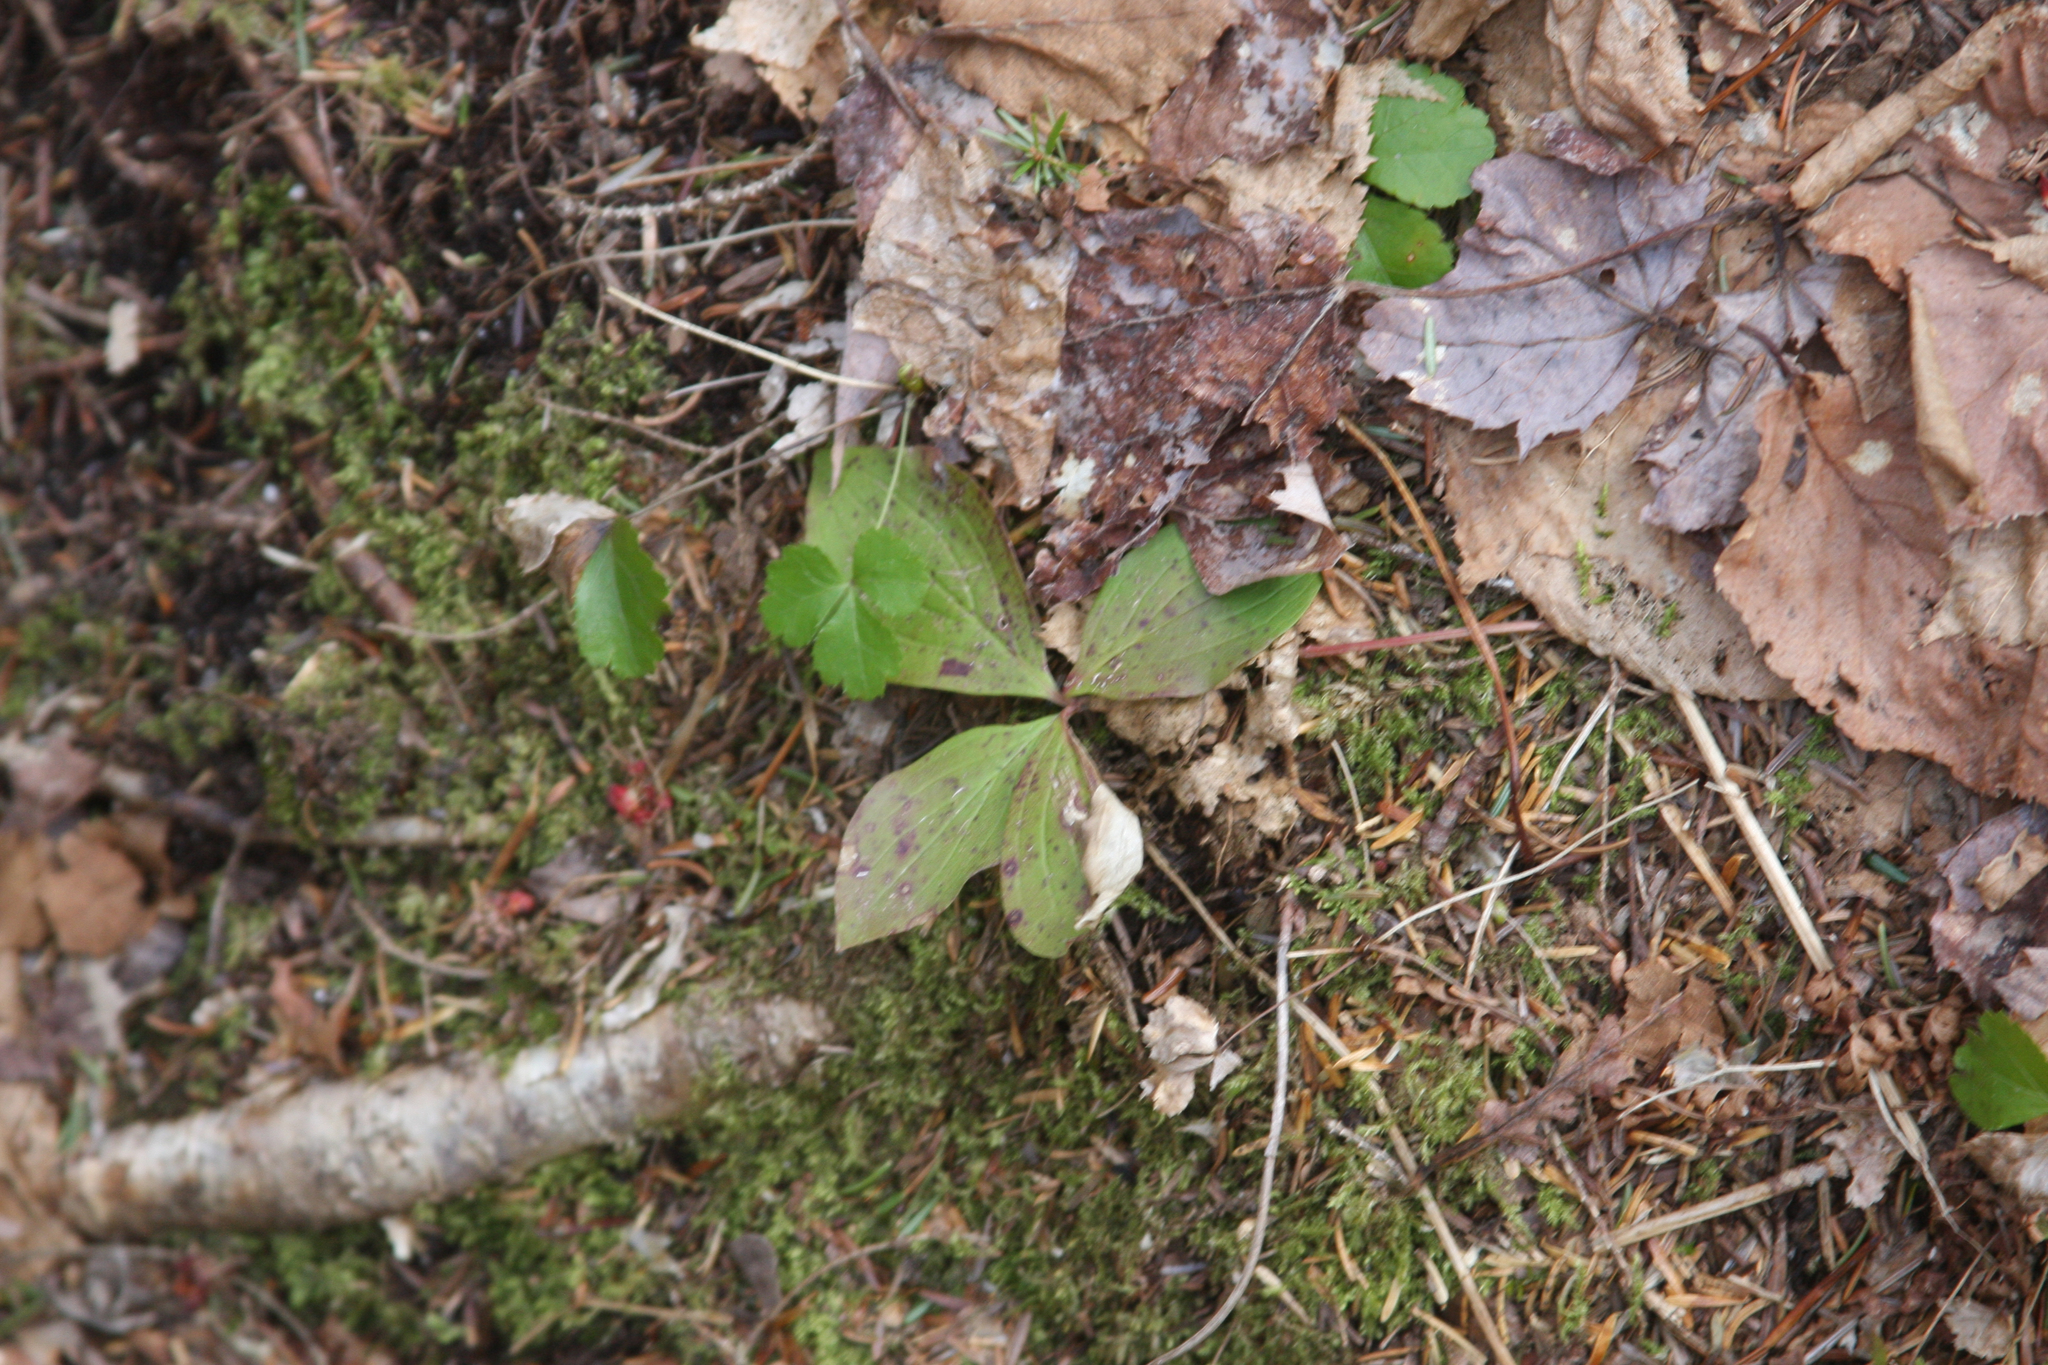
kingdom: Plantae
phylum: Tracheophyta
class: Magnoliopsida
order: Cornales
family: Cornaceae
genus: Cornus
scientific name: Cornus canadensis
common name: Creeping dogwood
